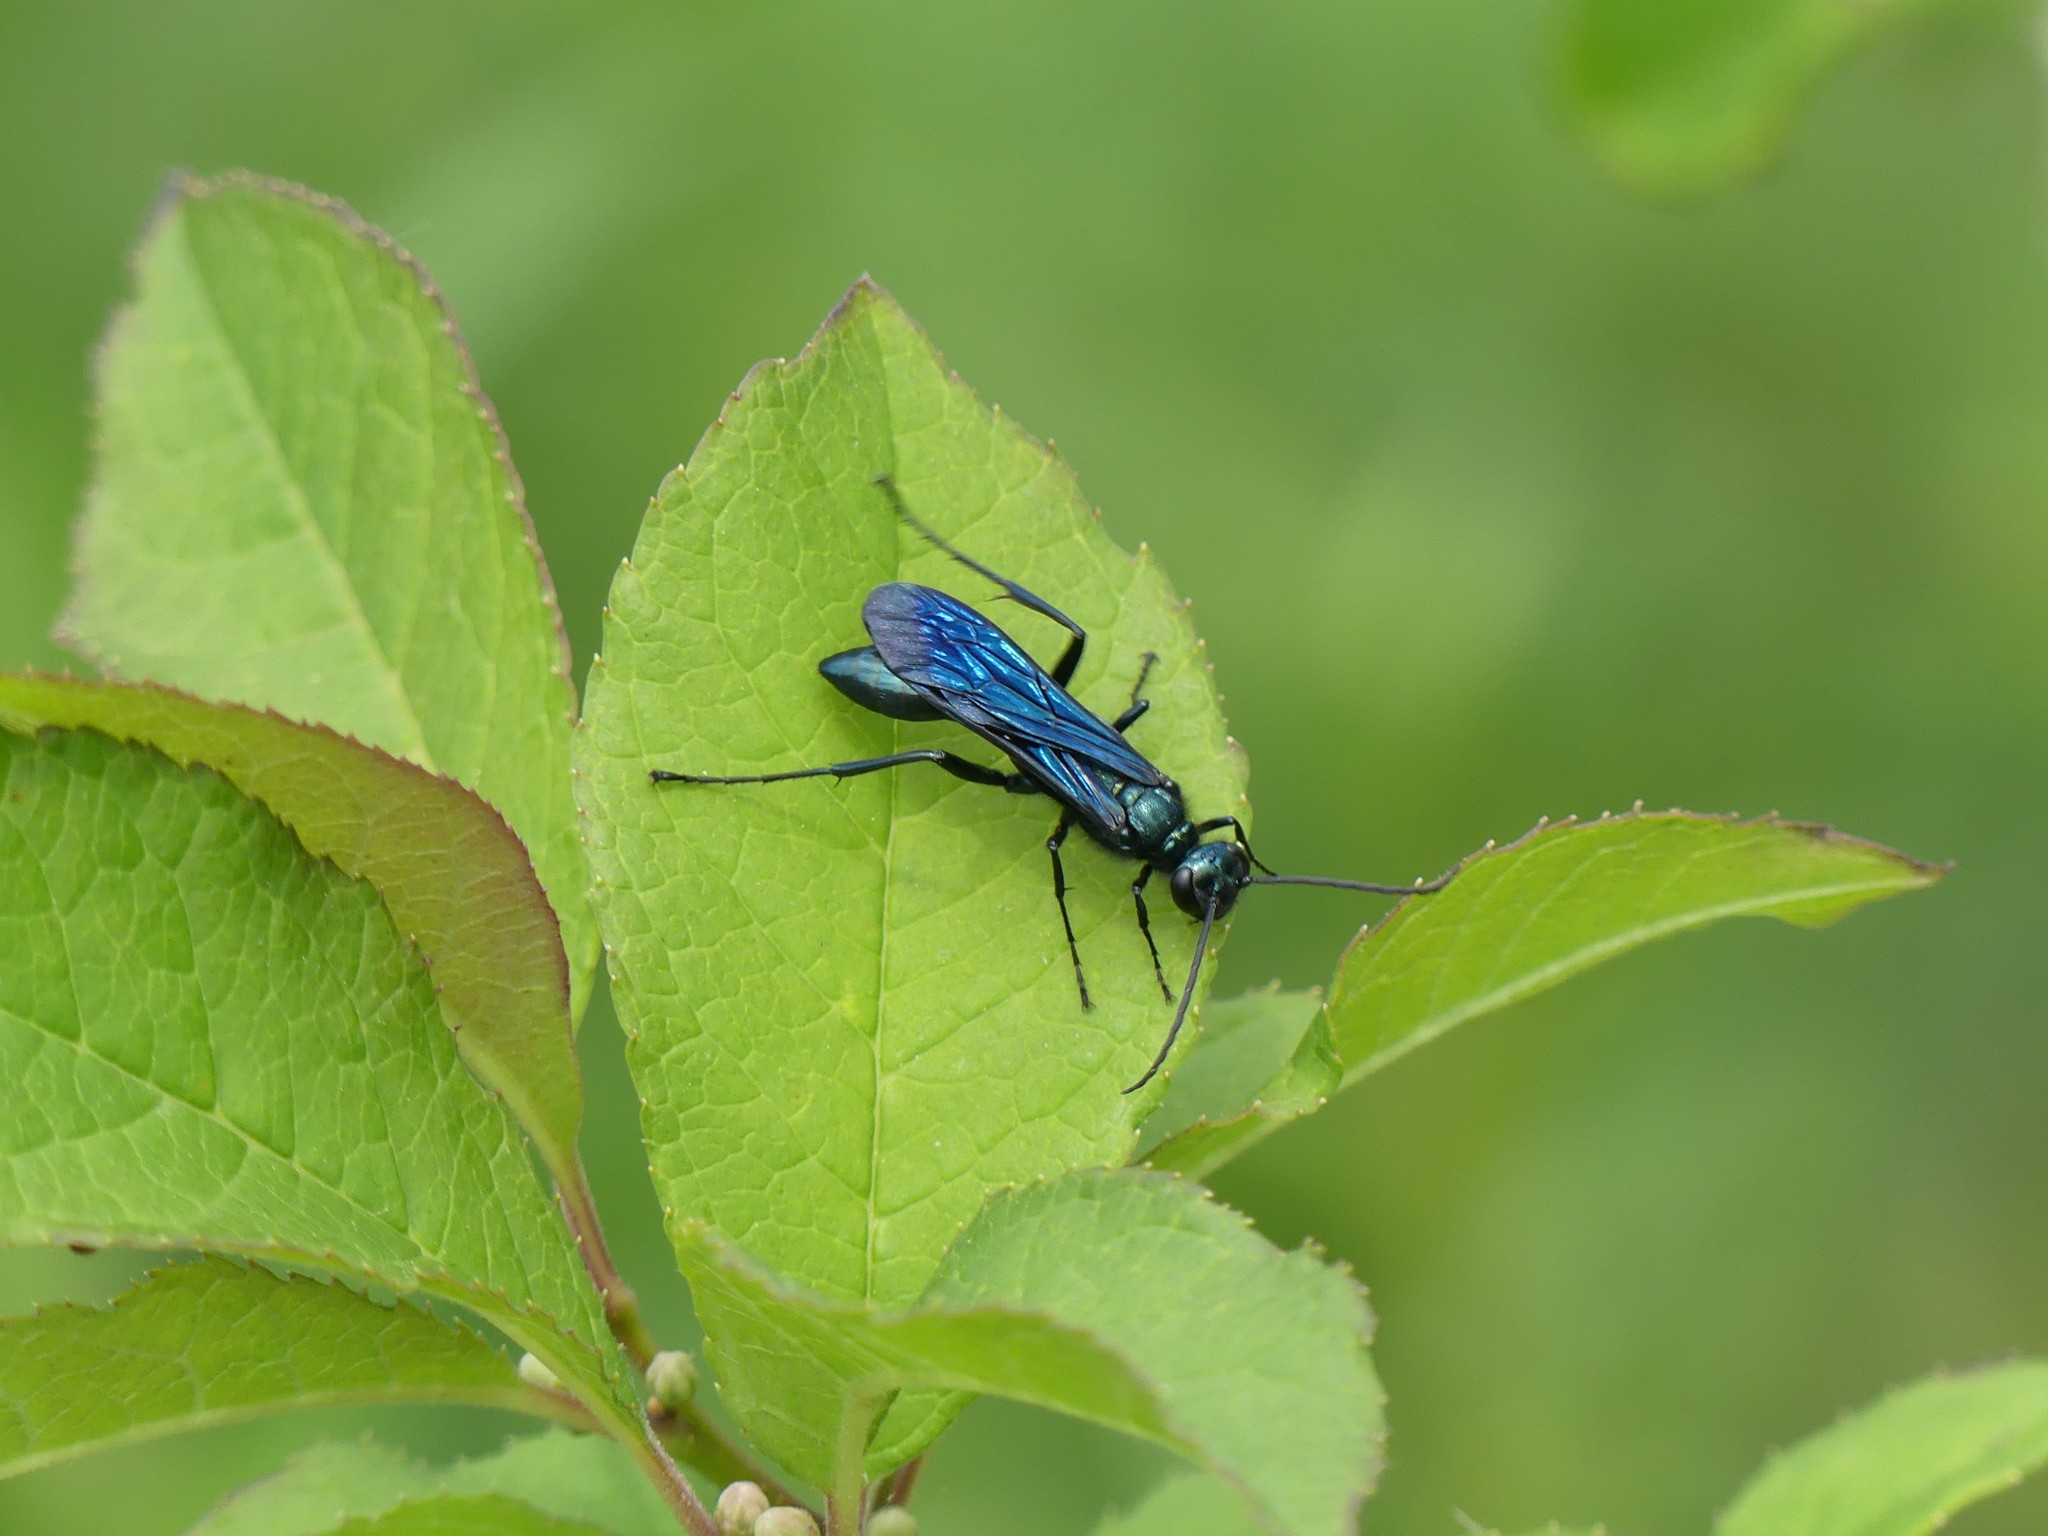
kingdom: Animalia
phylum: Arthropoda
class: Insecta
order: Hymenoptera
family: Sphecidae
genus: Chalybion
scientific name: Chalybion californicum
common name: Mud dauber
